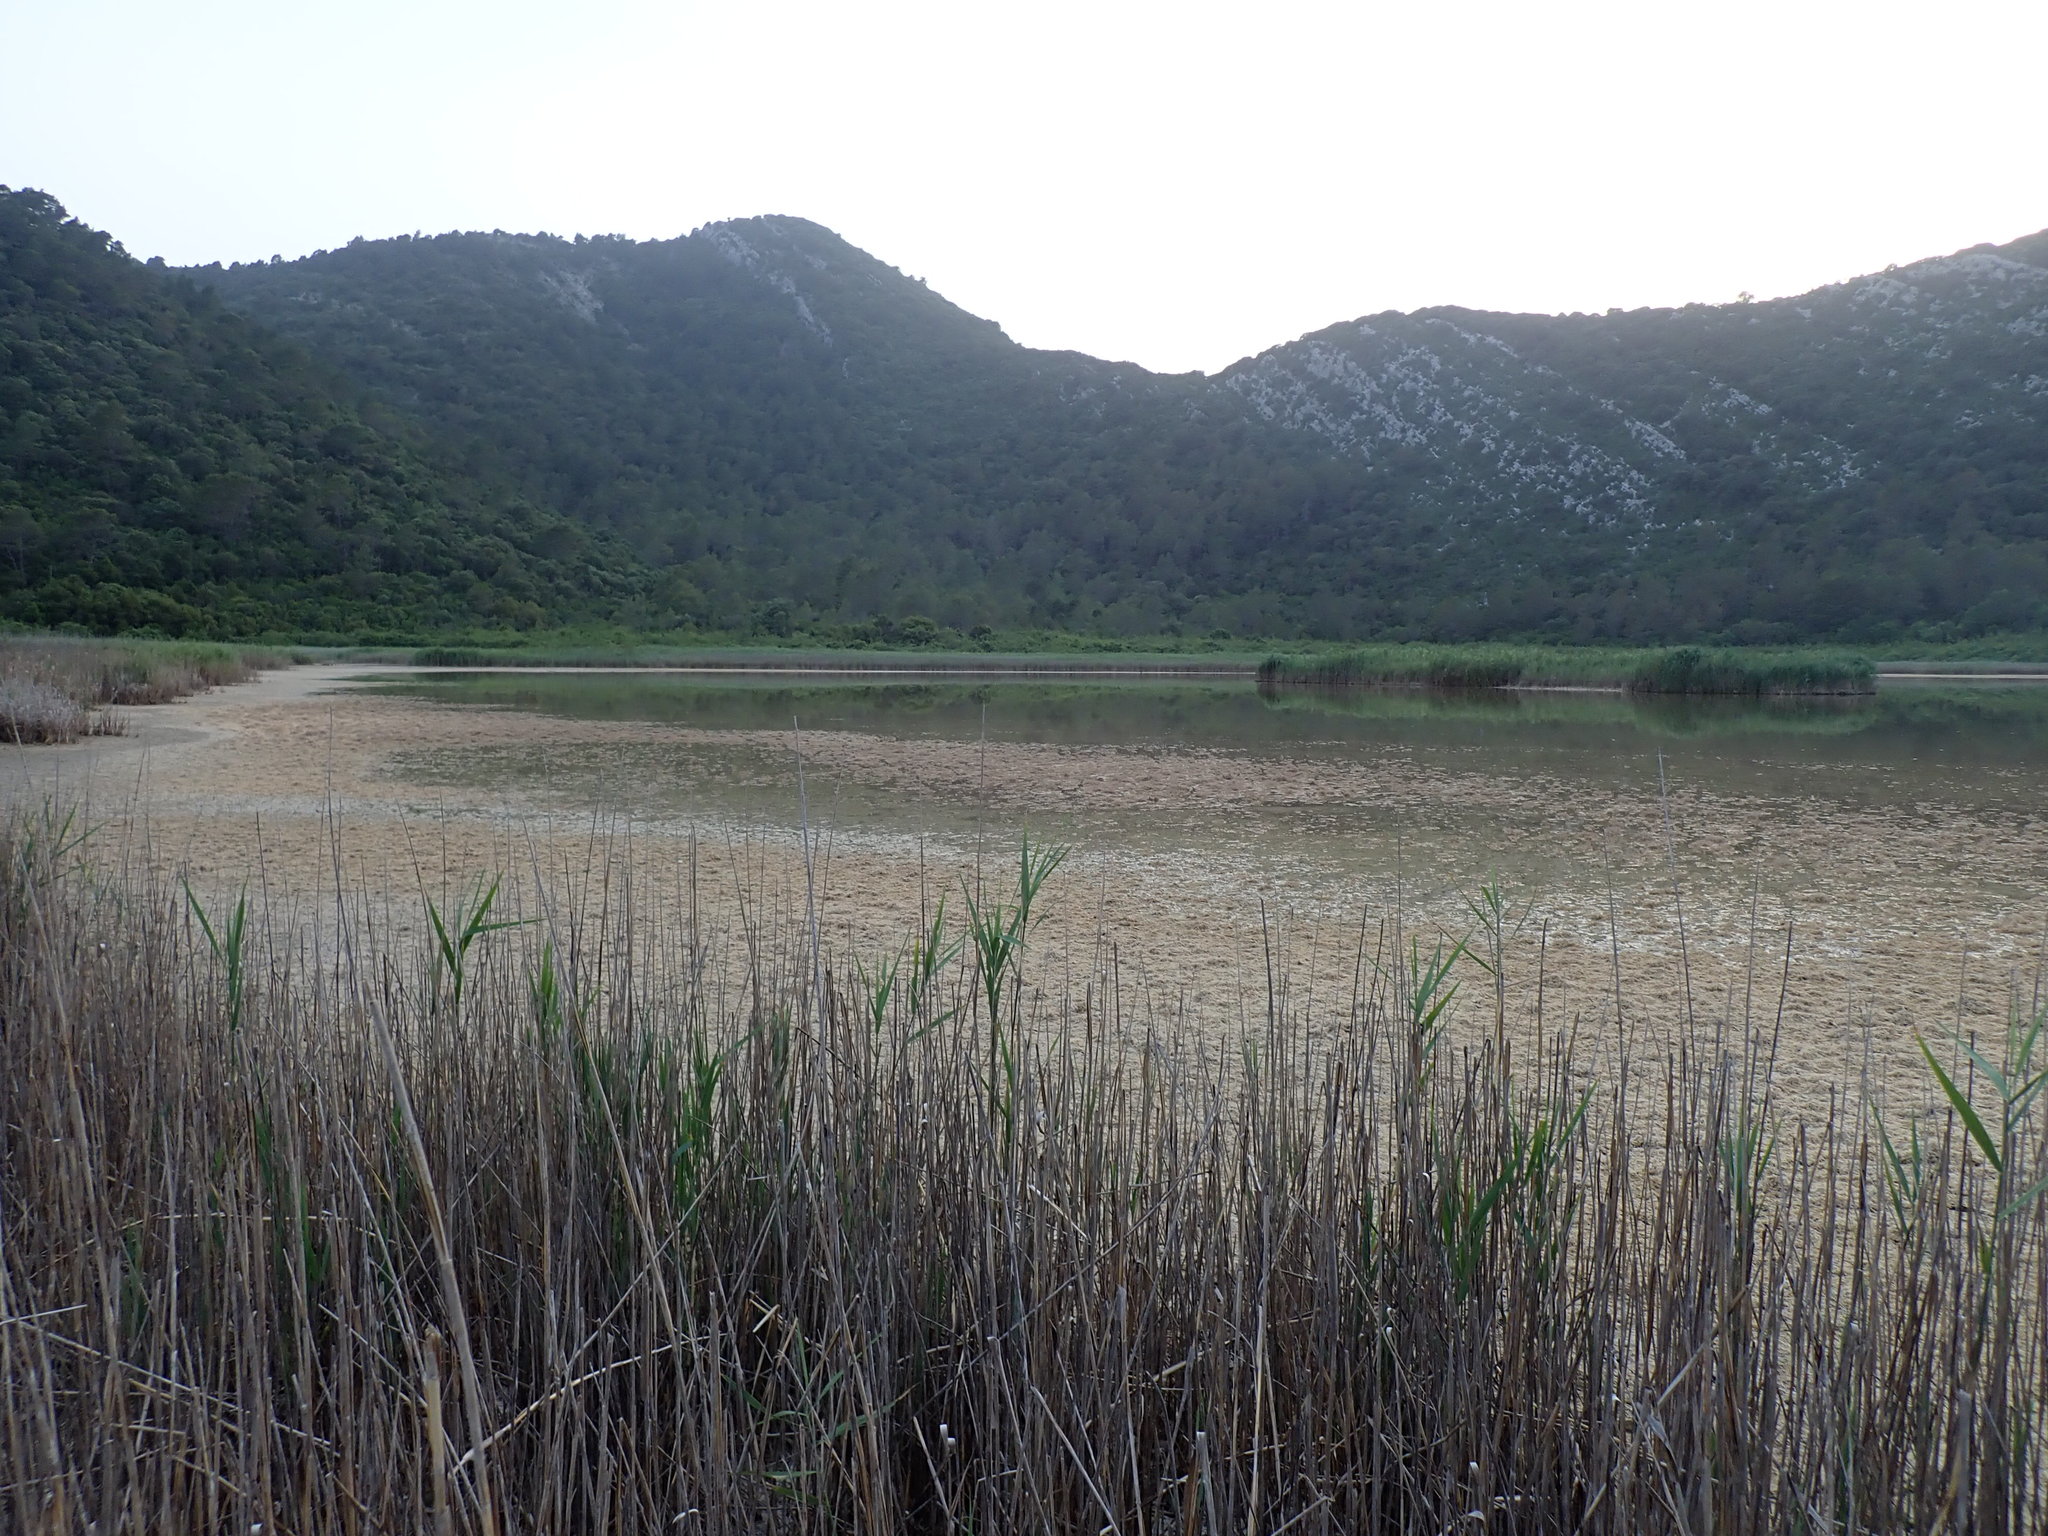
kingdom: Animalia
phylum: Arthropoda
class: Insecta
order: Orthoptera
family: Trigonidiidae
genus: Pteronemobius
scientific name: Pteronemobius heydenii
